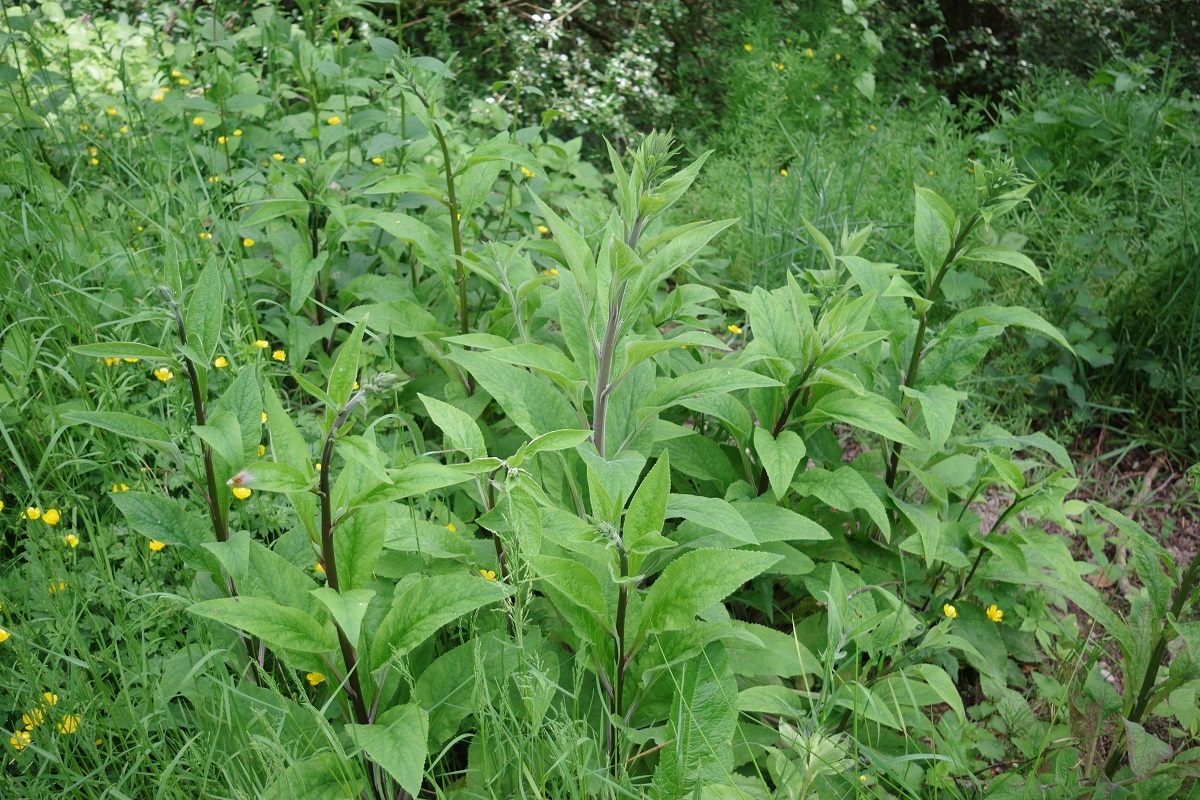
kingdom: Plantae
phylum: Tracheophyta
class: Magnoliopsida
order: Lamiales
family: Plantaginaceae
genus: Digitalis
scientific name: Digitalis purpurea
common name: Foxglove
